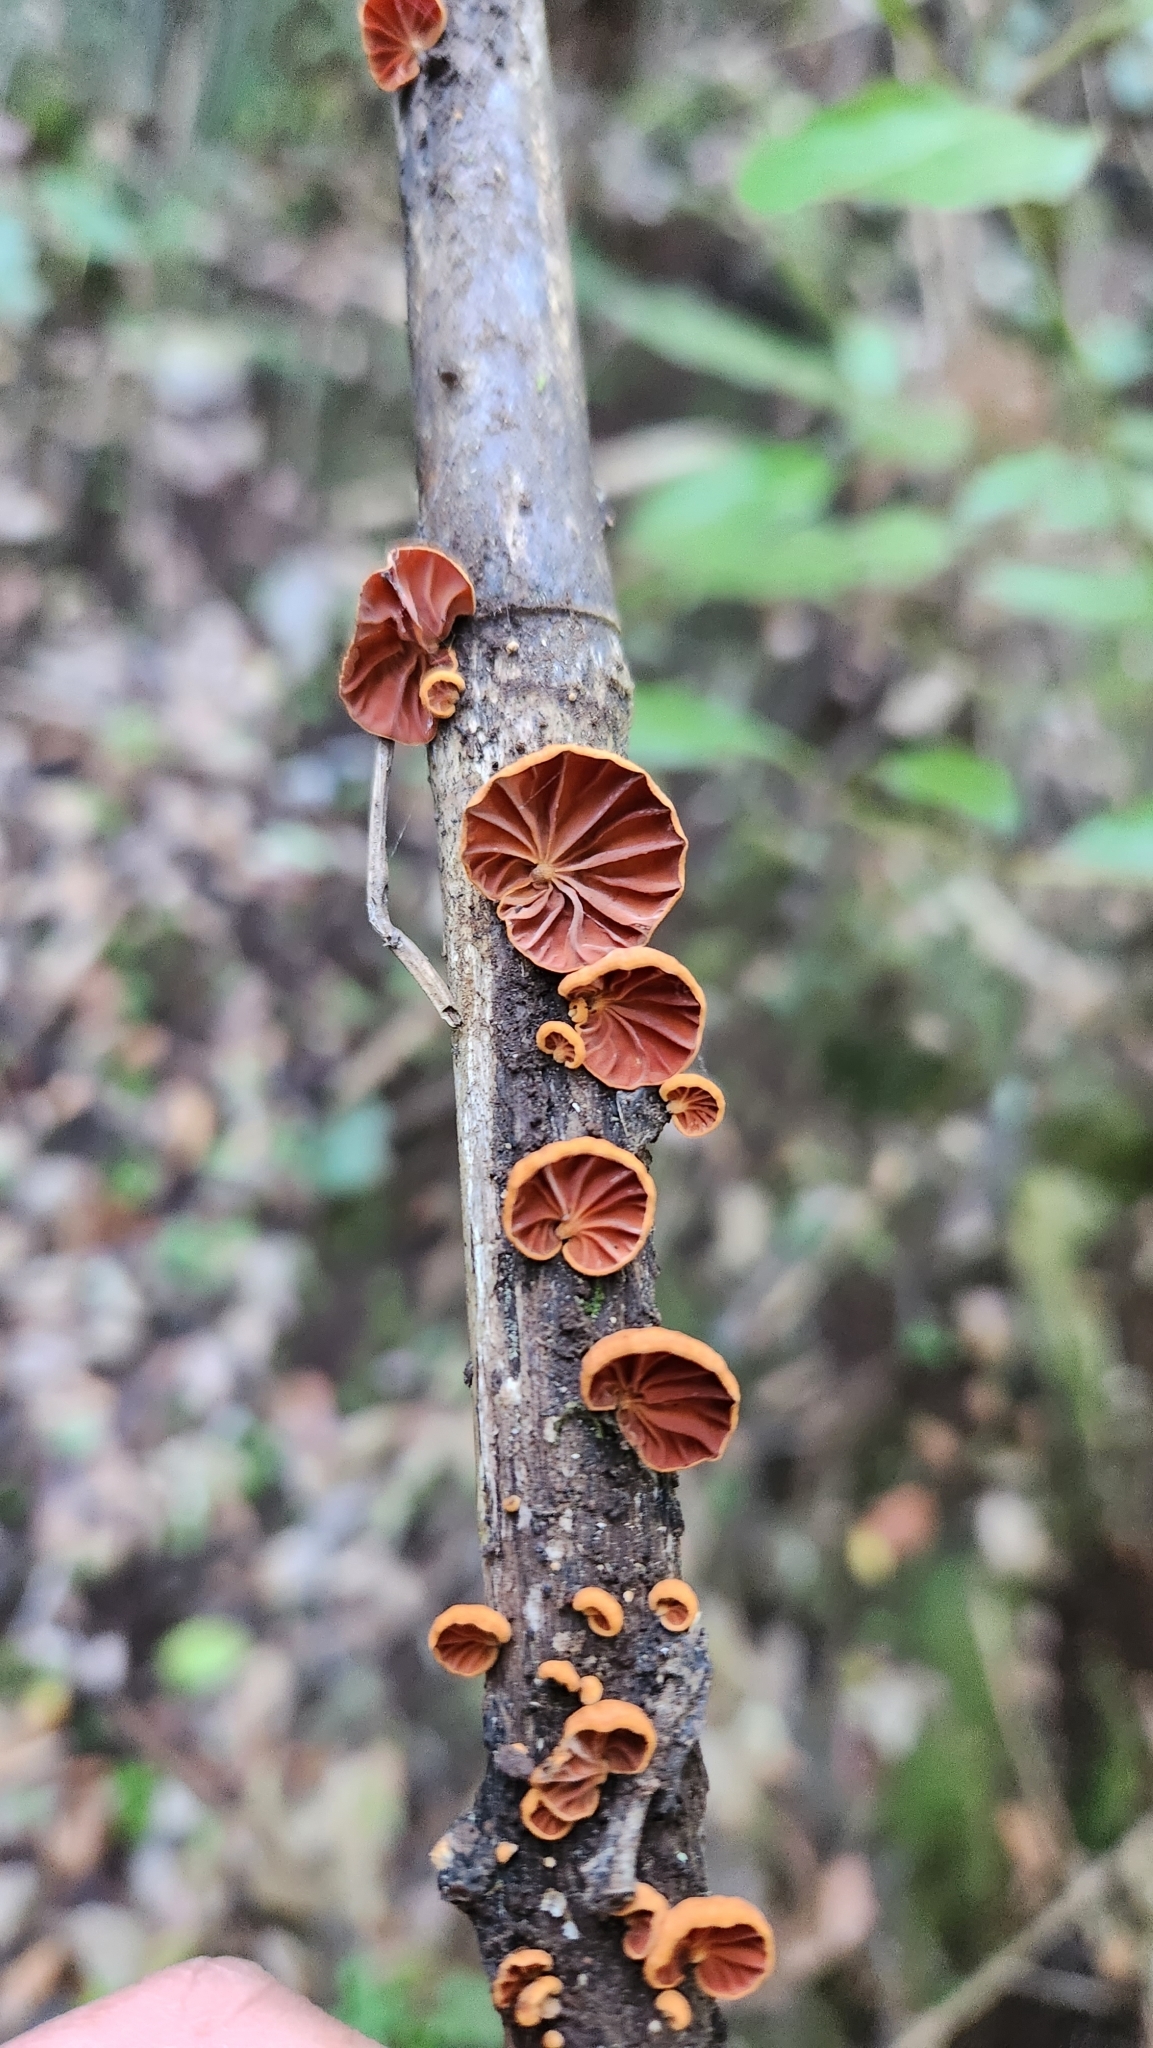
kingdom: Fungi
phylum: Basidiomycota
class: Agaricomycetes
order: Agaricales
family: Omphalotaceae
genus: Anthracophyllum
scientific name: Anthracophyllum discolor
